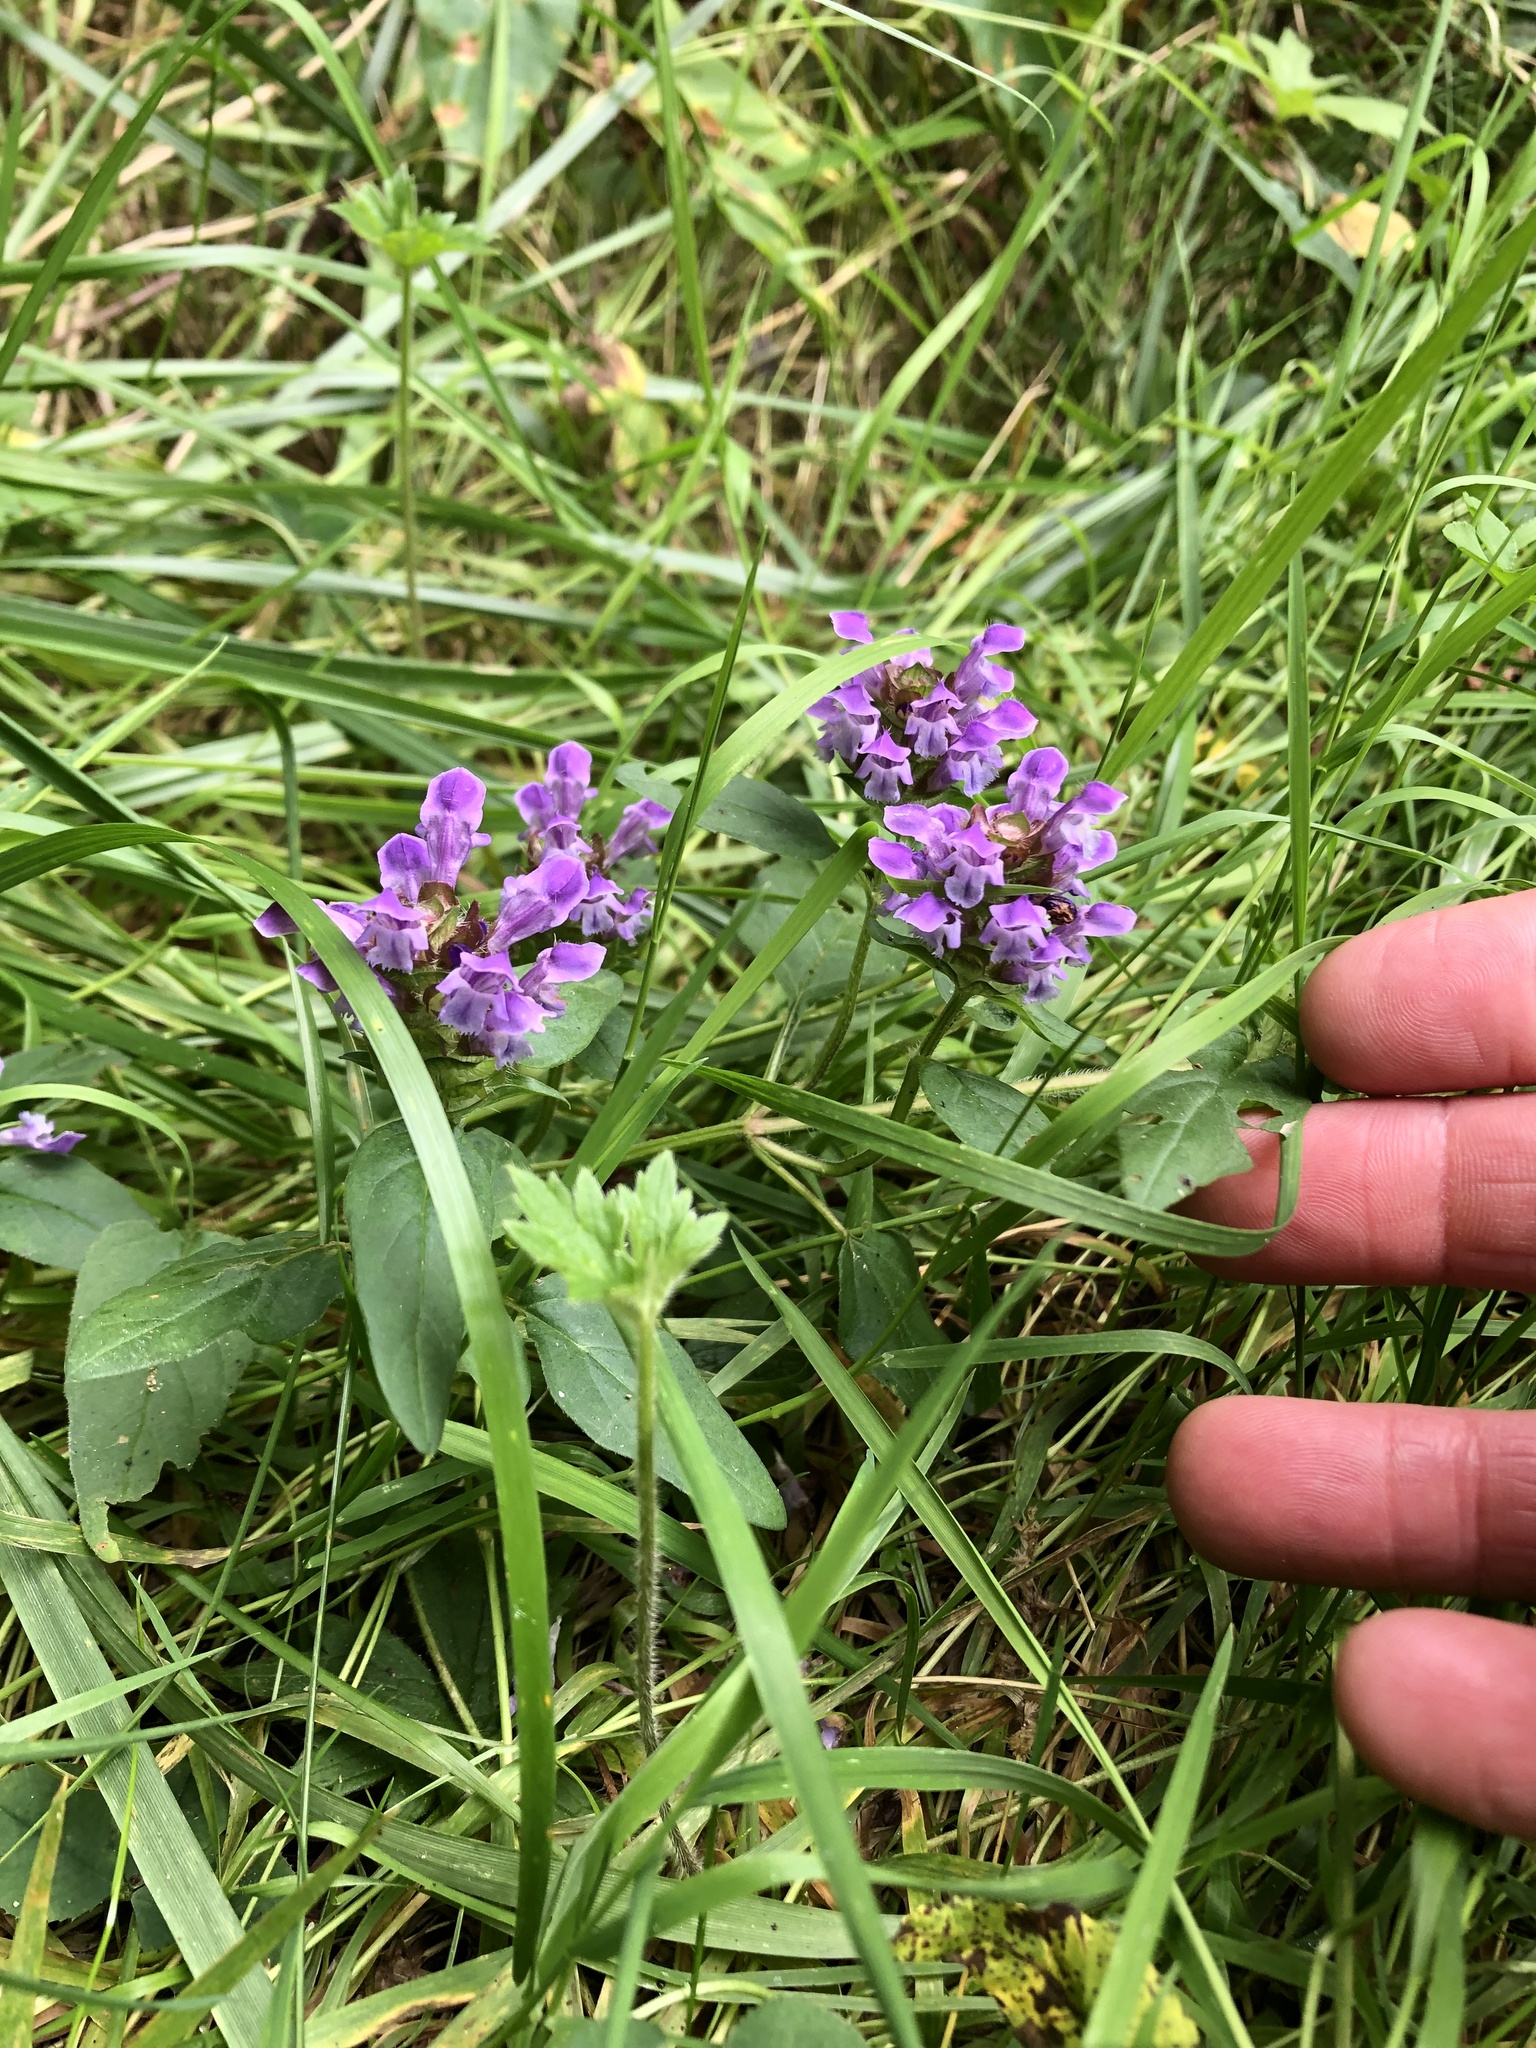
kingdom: Plantae
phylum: Tracheophyta
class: Magnoliopsida
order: Lamiales
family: Lamiaceae
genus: Prunella
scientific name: Prunella vulgaris
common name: Heal-all
